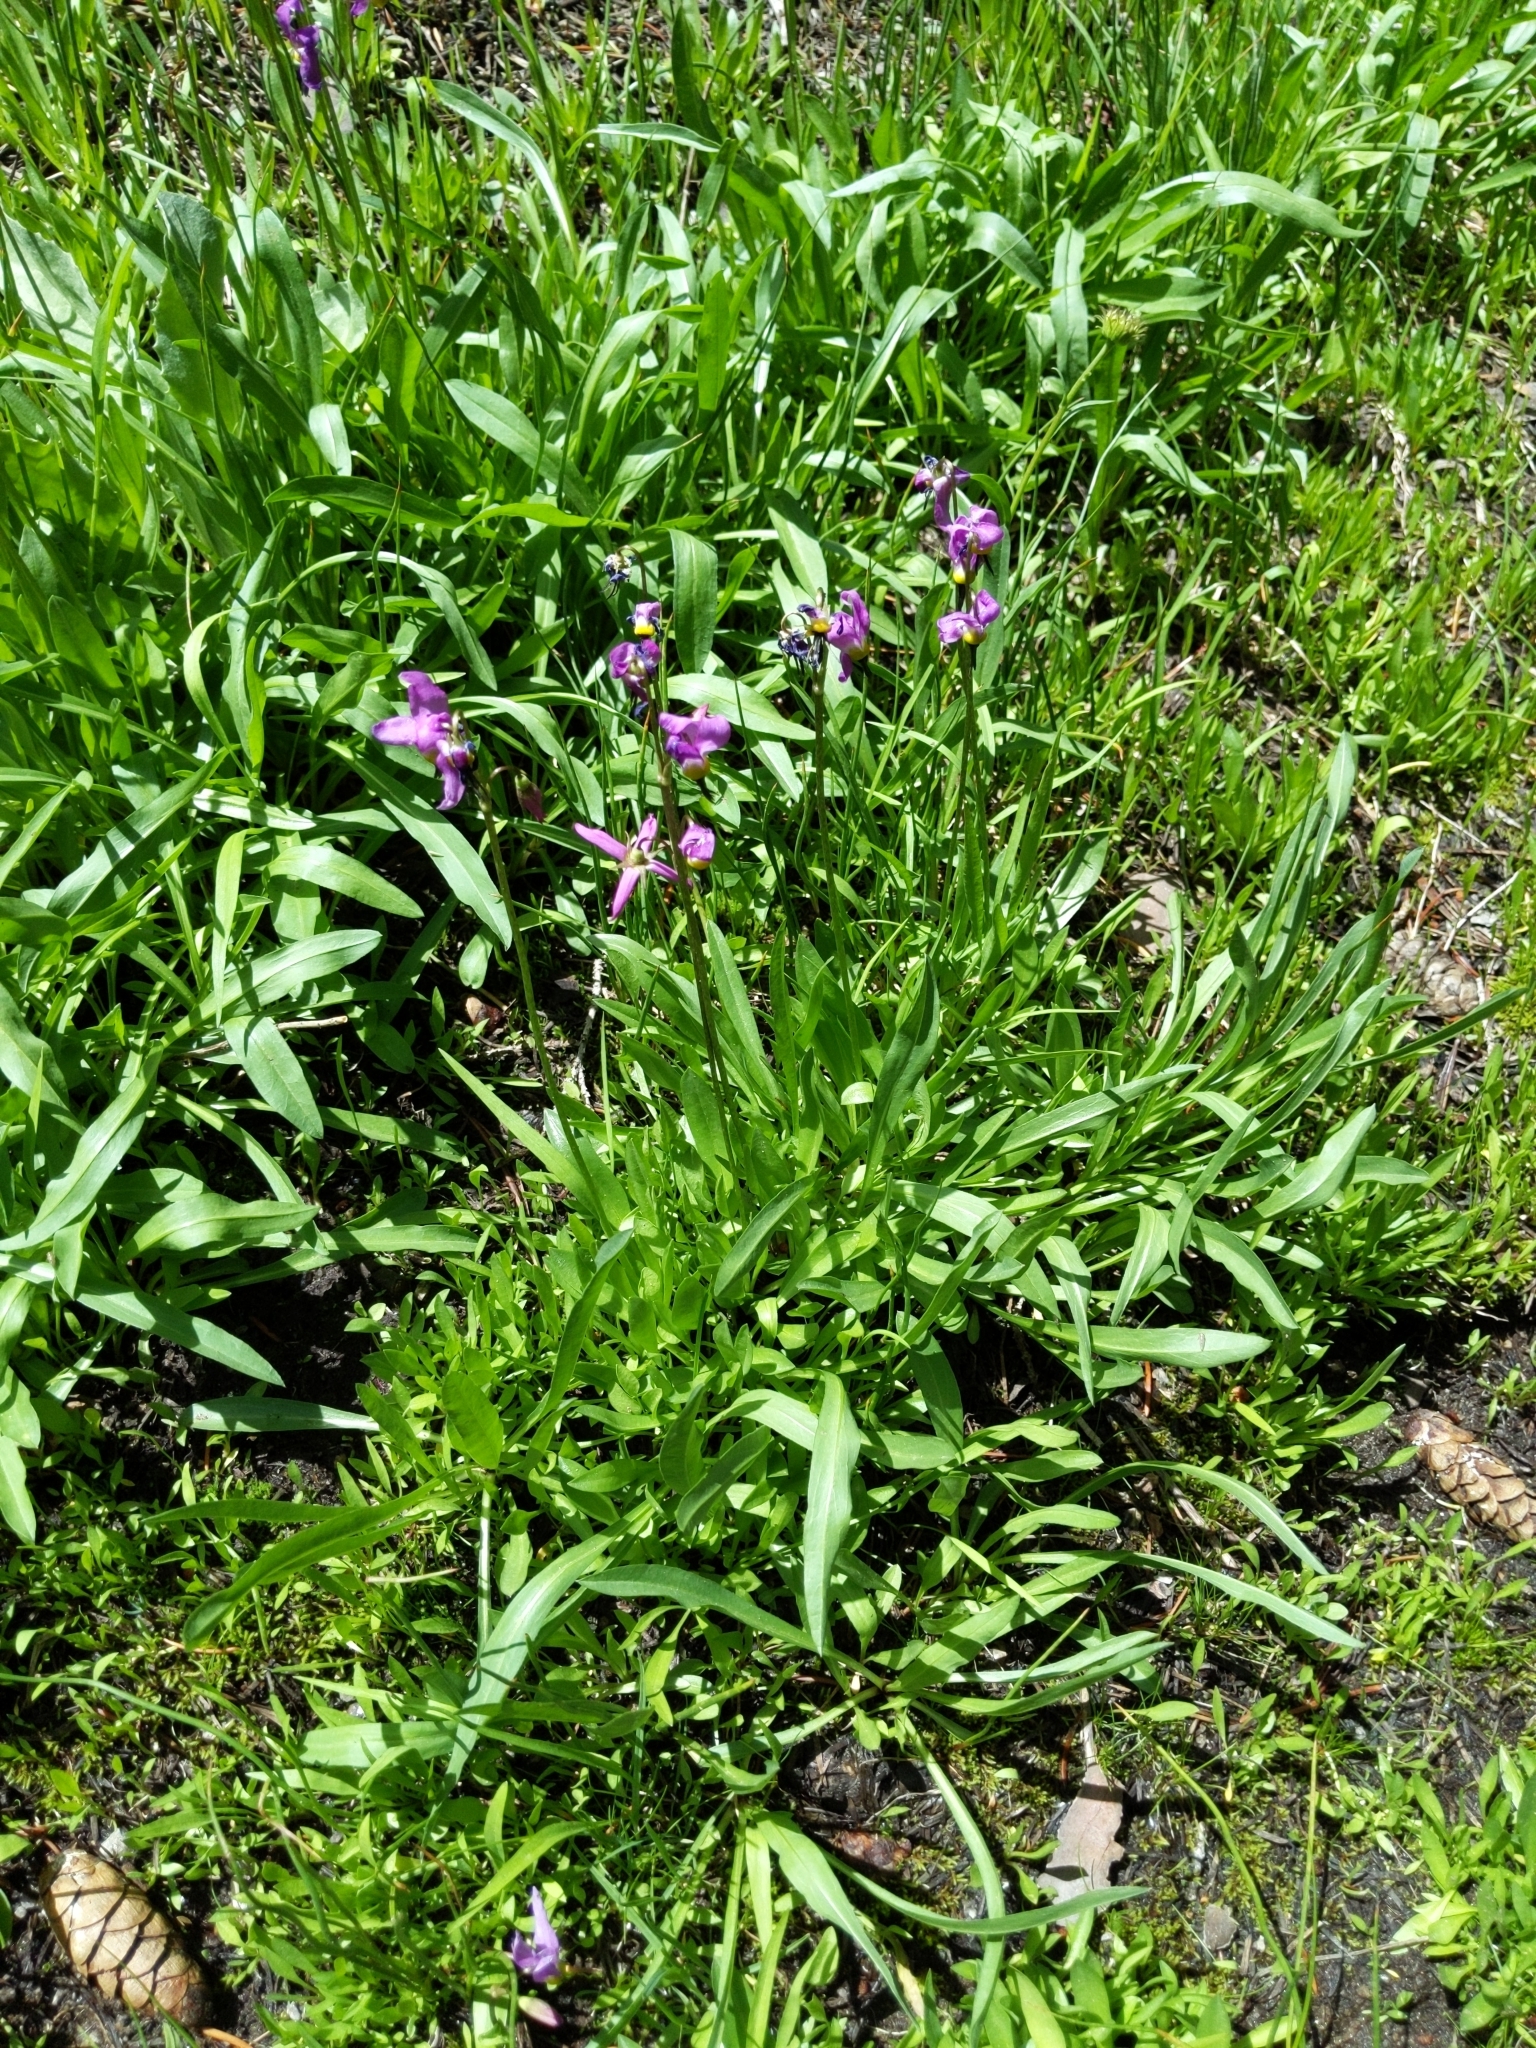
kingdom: Plantae
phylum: Tracheophyta
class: Magnoliopsida
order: Ericales
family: Primulaceae
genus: Dodecatheon
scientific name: Dodecatheon alpinum
